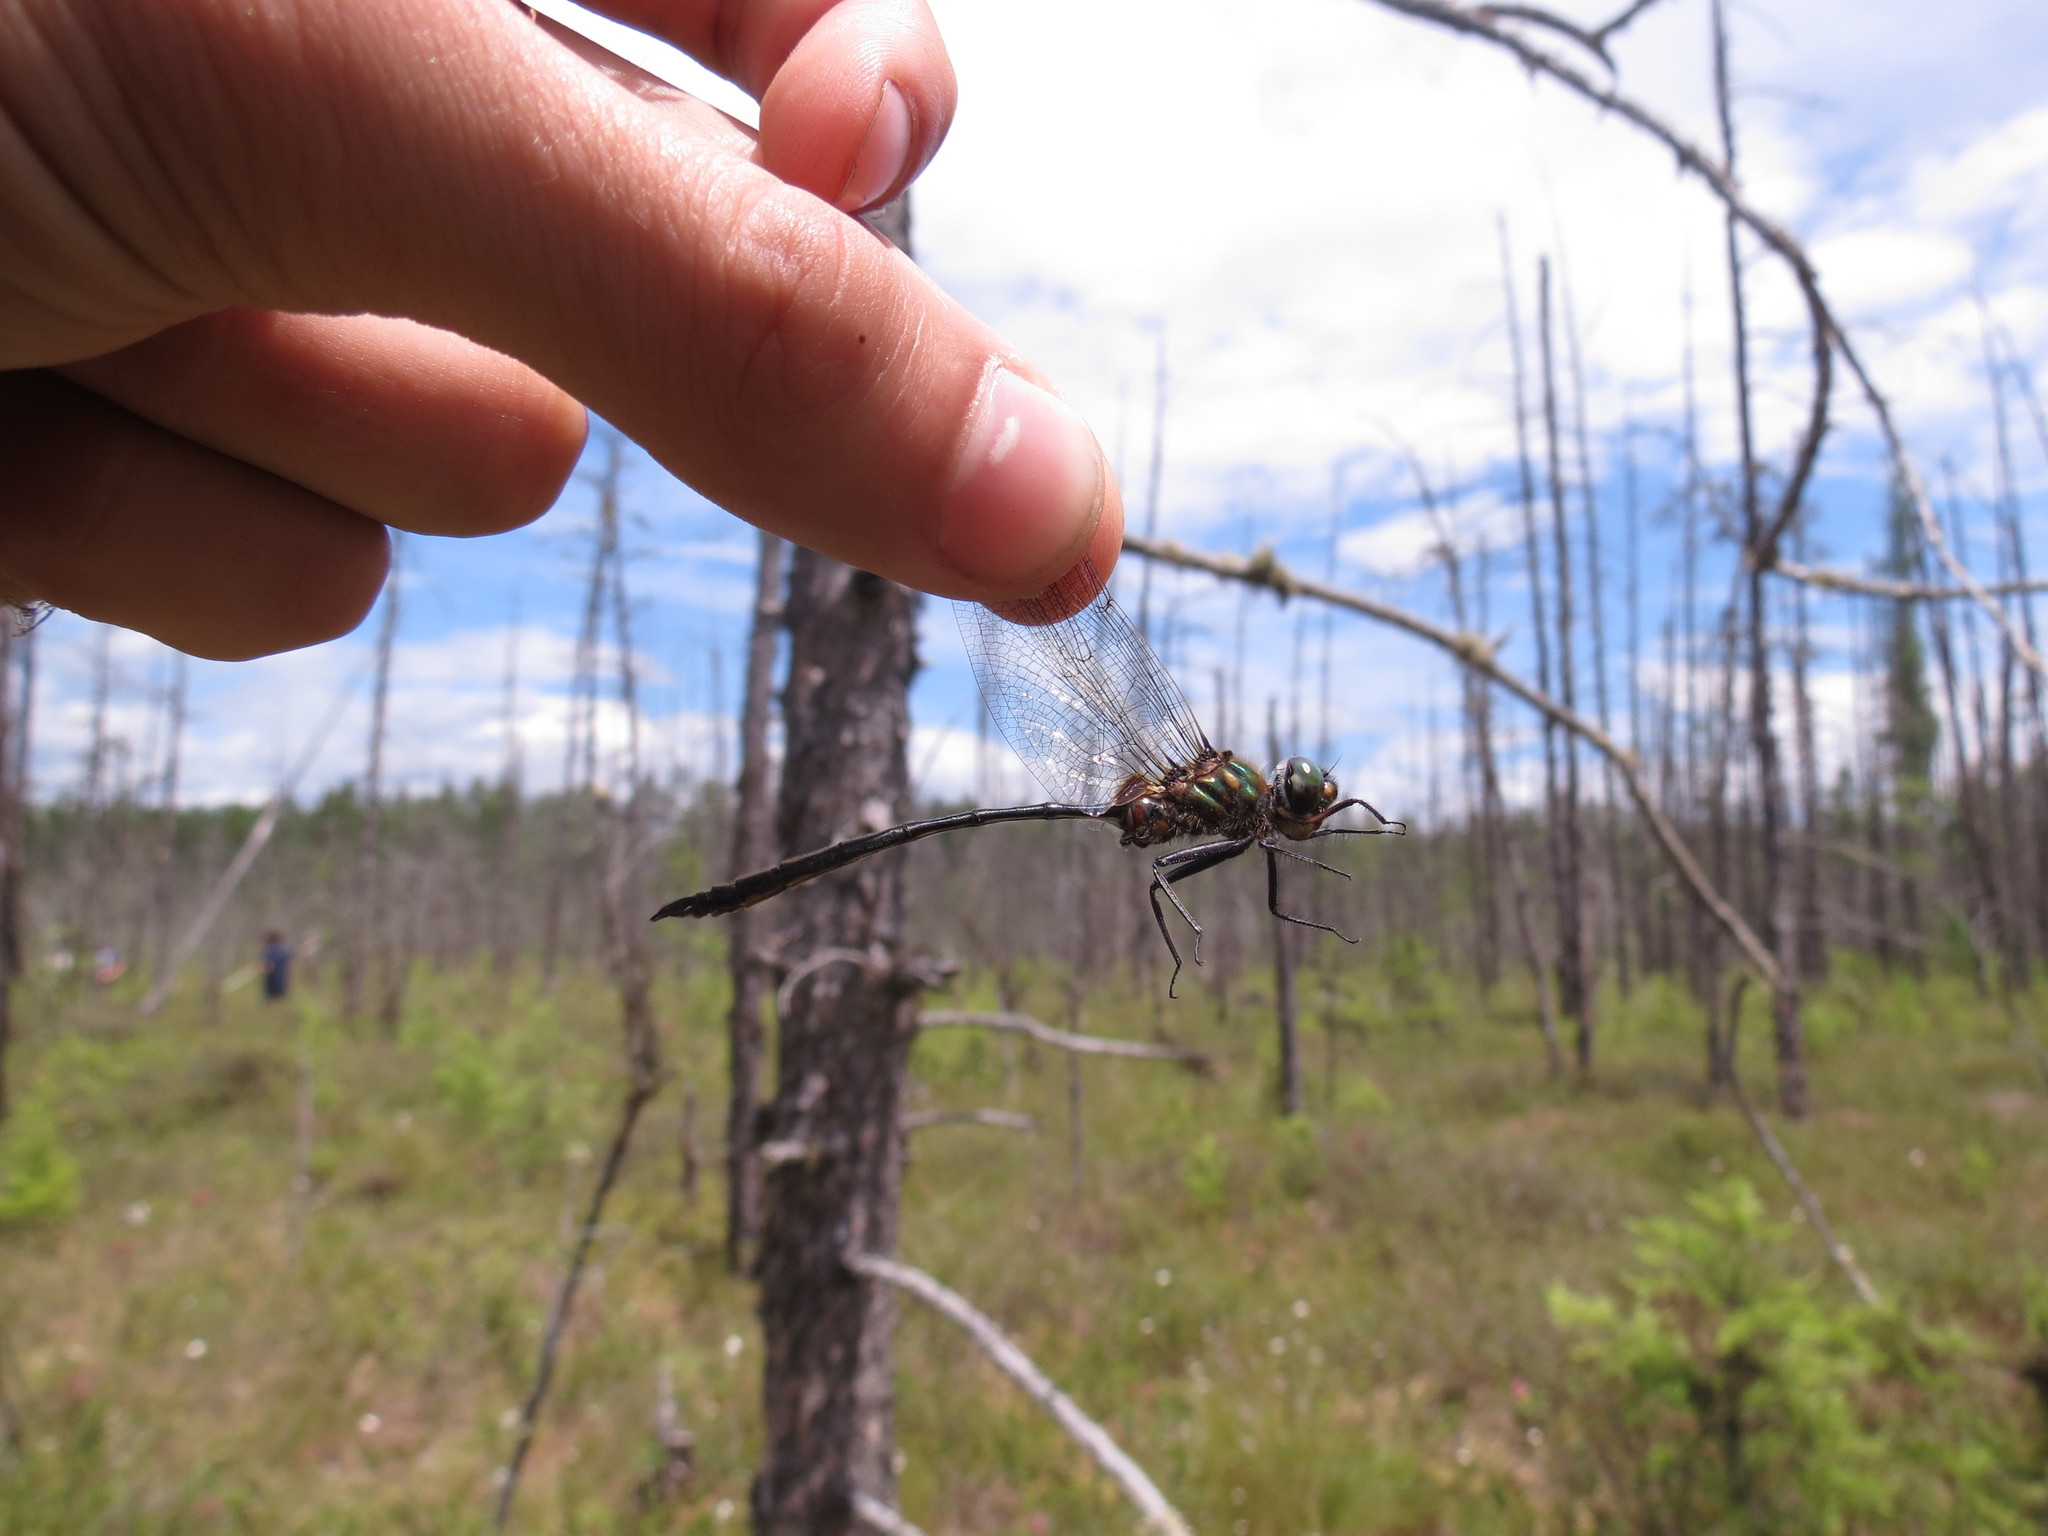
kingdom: Animalia
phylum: Arthropoda
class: Insecta
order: Odonata
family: Corduliidae
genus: Somatochlora
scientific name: Somatochlora franklini
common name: Delicate emerald
